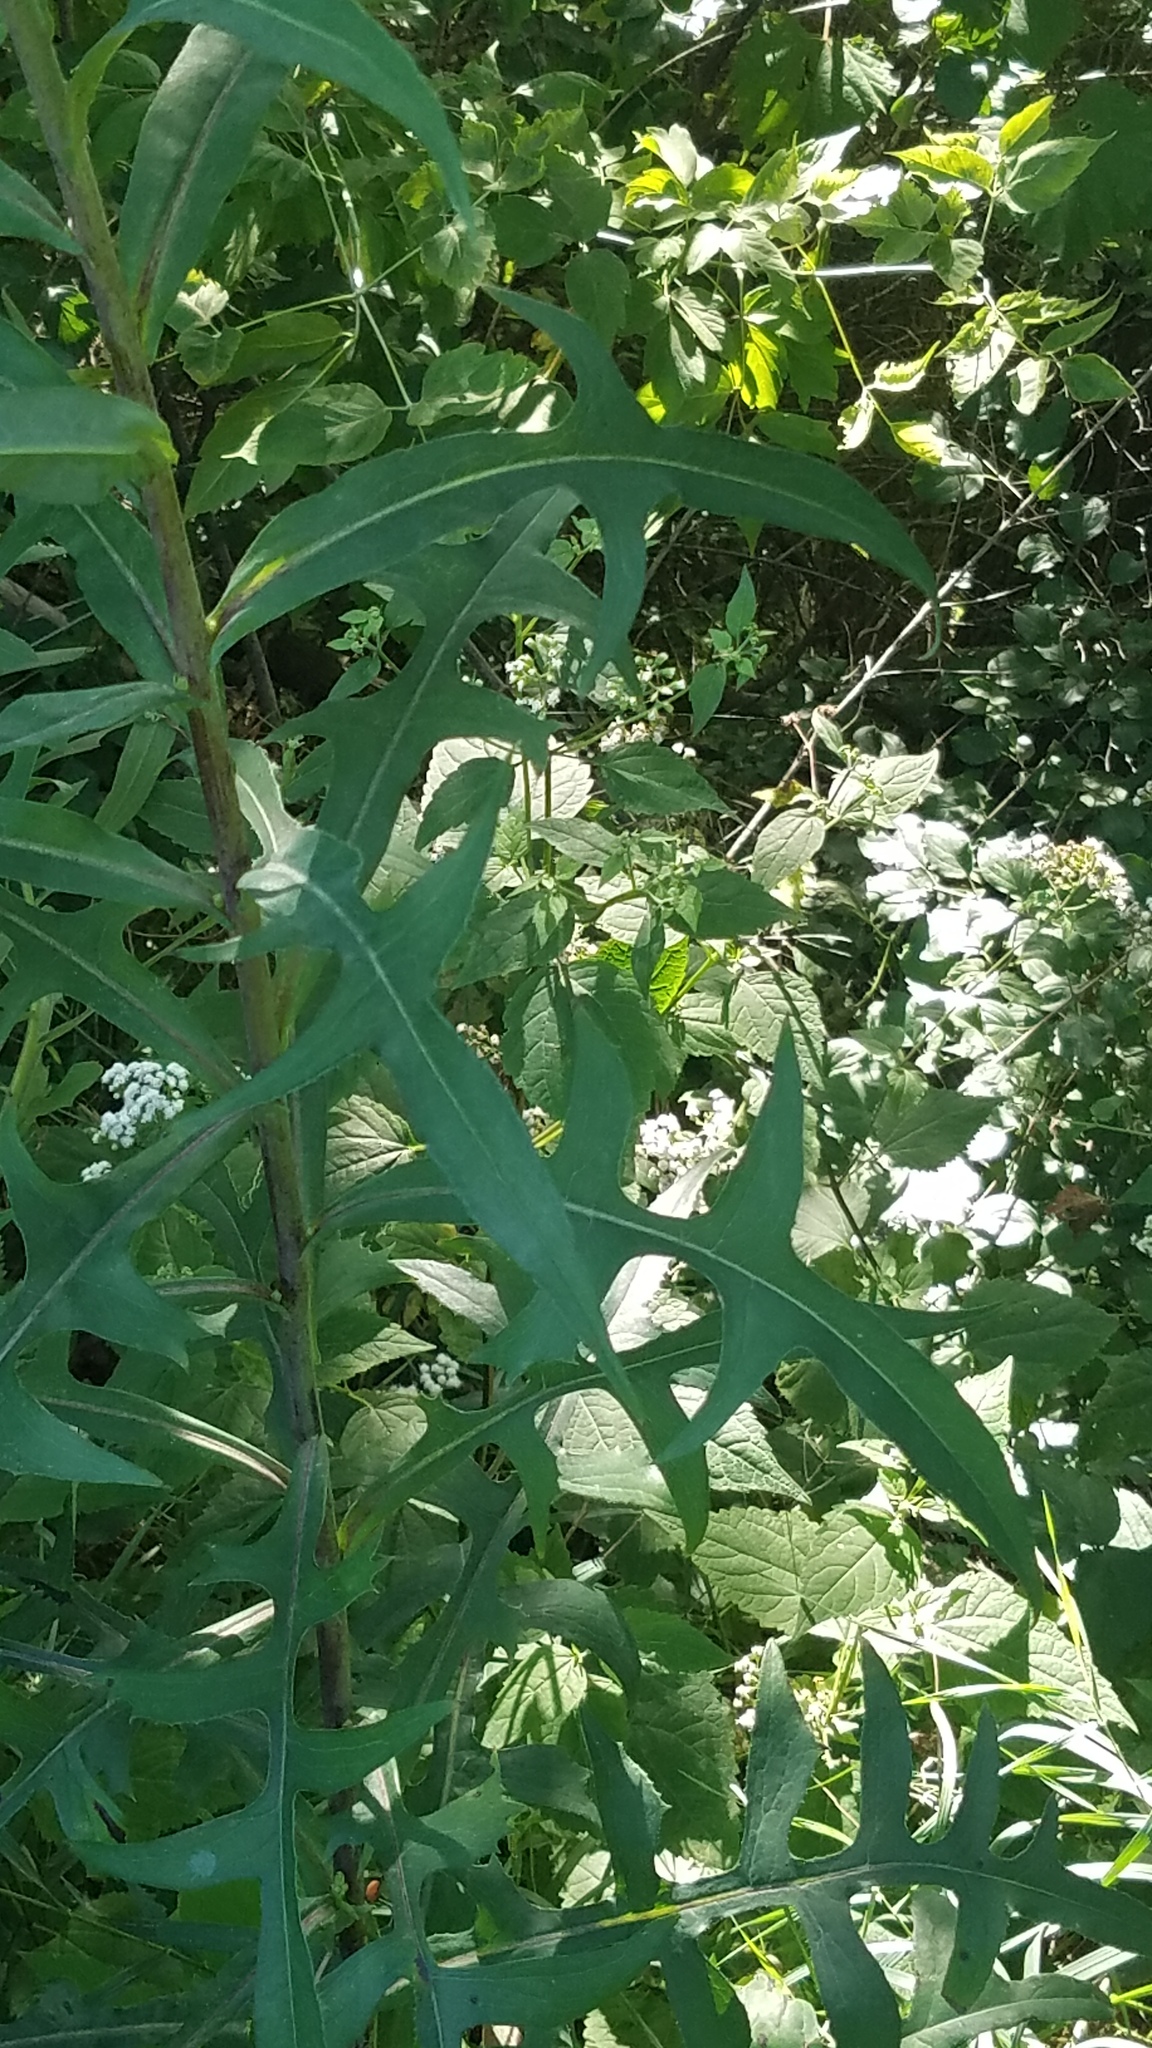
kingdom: Plantae
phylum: Tracheophyta
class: Magnoliopsida
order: Asterales
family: Asteraceae
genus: Lactuca
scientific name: Lactuca canadensis
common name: Canada lettuce
